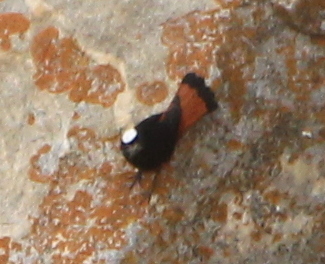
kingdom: Animalia
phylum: Chordata
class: Aves
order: Passeriformes
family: Muscicapidae
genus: Chaimarrornis
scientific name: Chaimarrornis leucocephalus
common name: White-capped redstart
